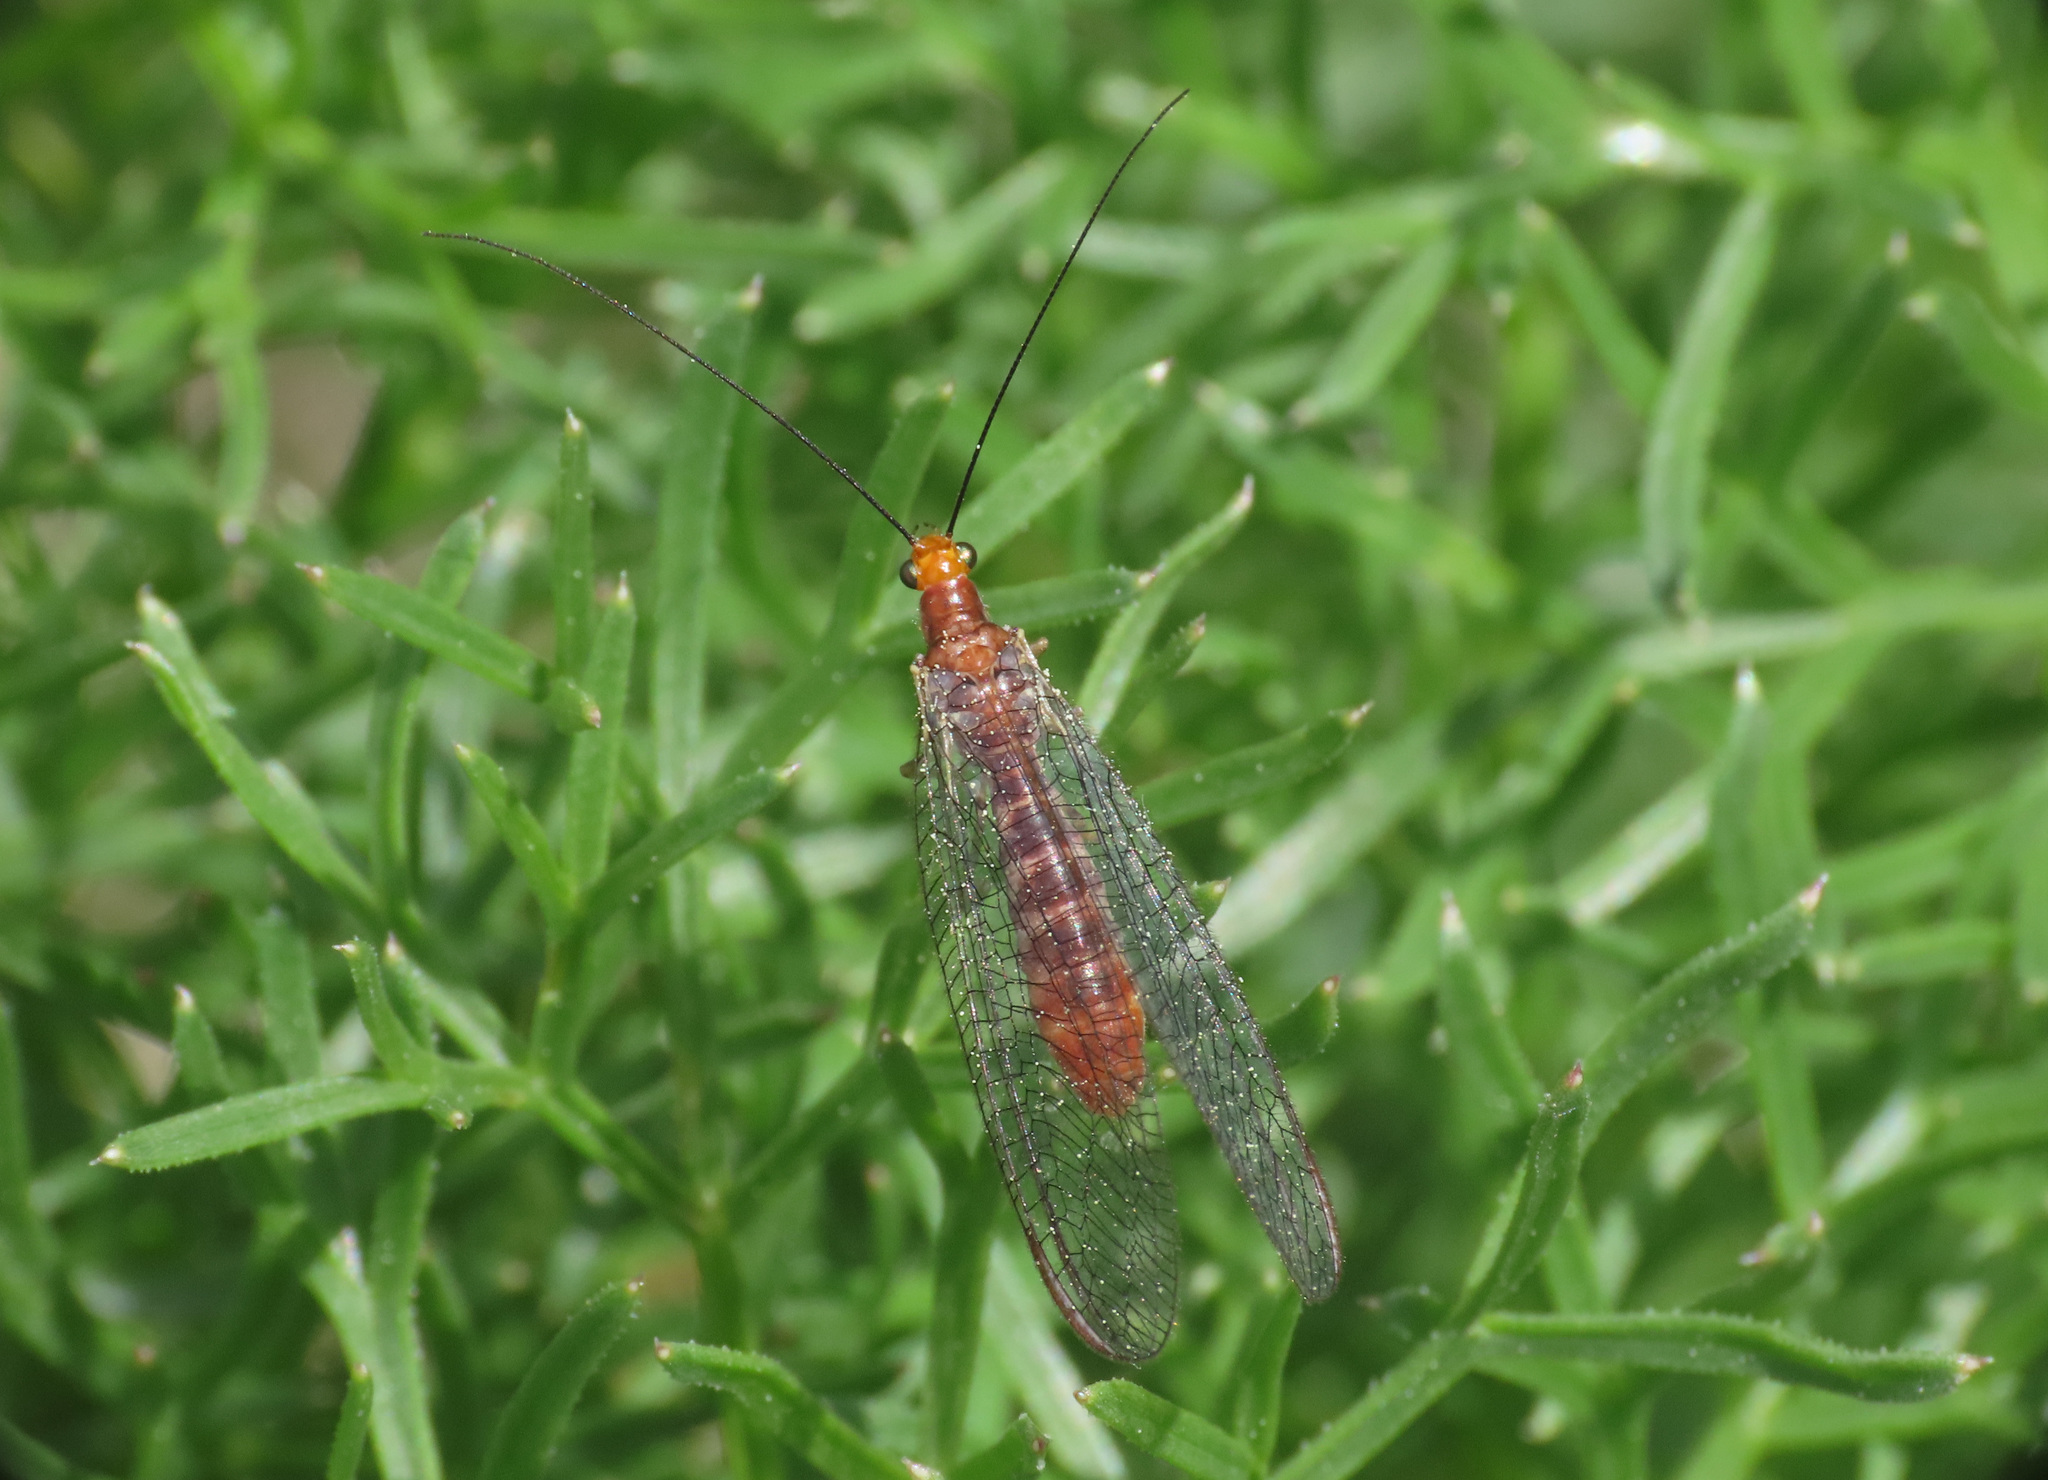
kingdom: Animalia
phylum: Arthropoda
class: Insecta
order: Neuroptera
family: Chrysopidae
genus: Nothochrysa
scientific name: Nothochrysa capitata
